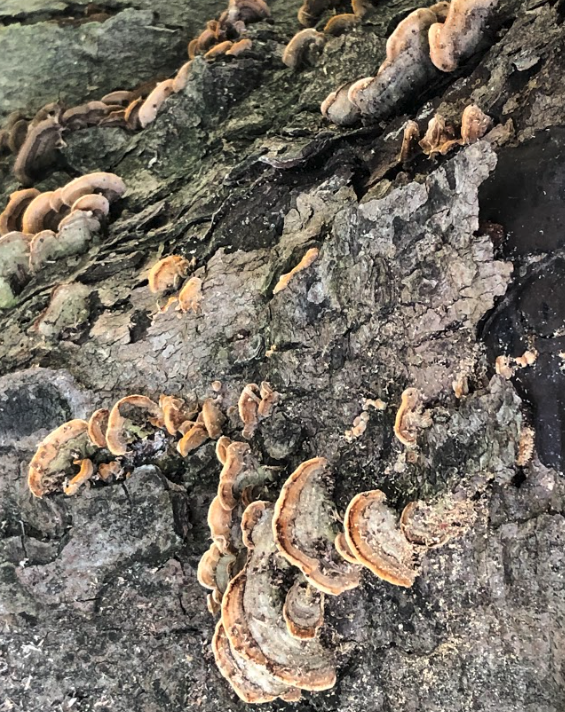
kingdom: Fungi
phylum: Basidiomycota
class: Agaricomycetes
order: Russulales
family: Stereaceae
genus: Stereum
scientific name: Stereum subtomentosum
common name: Yellowing curtain crust
